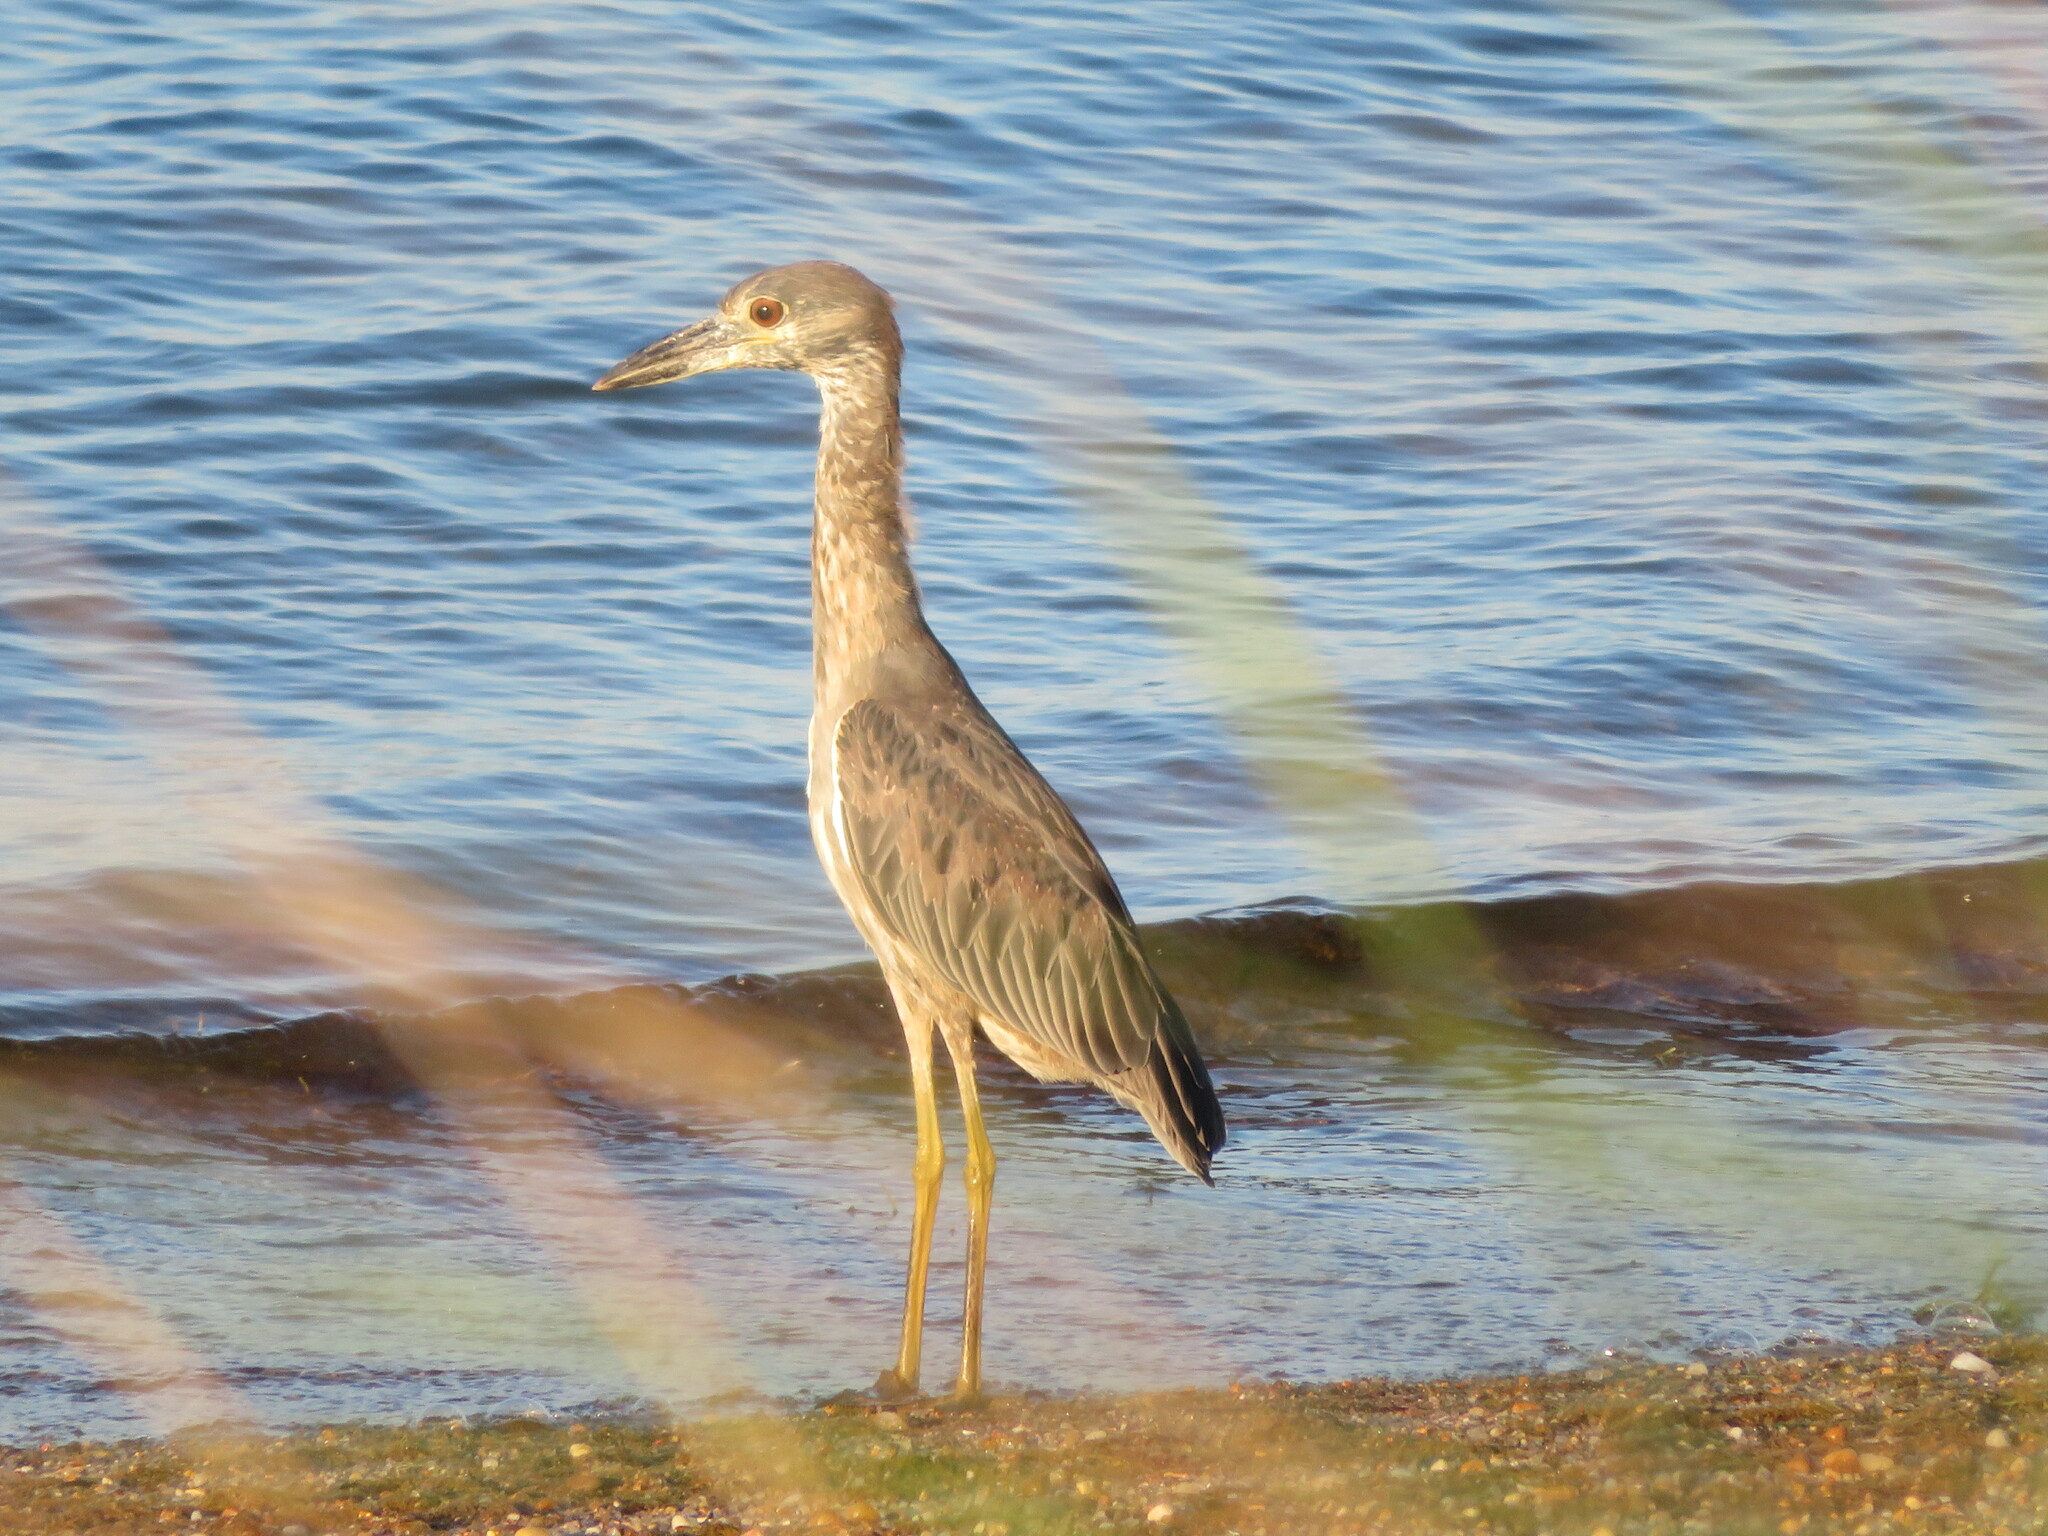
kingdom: Animalia
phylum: Chordata
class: Aves
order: Pelecaniformes
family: Ardeidae
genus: Nyctanassa
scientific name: Nyctanassa violacea
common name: Yellow-crowned night heron
